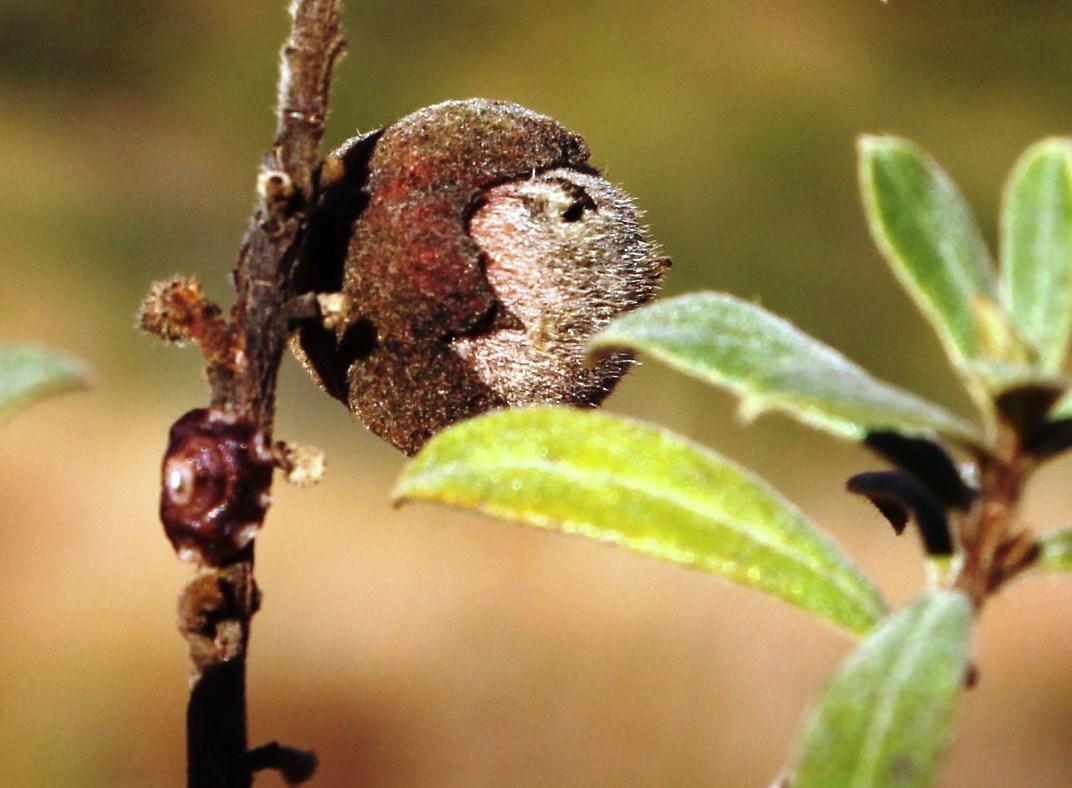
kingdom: Plantae
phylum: Tracheophyta
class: Magnoliopsida
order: Ericales
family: Ebenaceae
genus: Diospyros
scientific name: Diospyros pubescens
